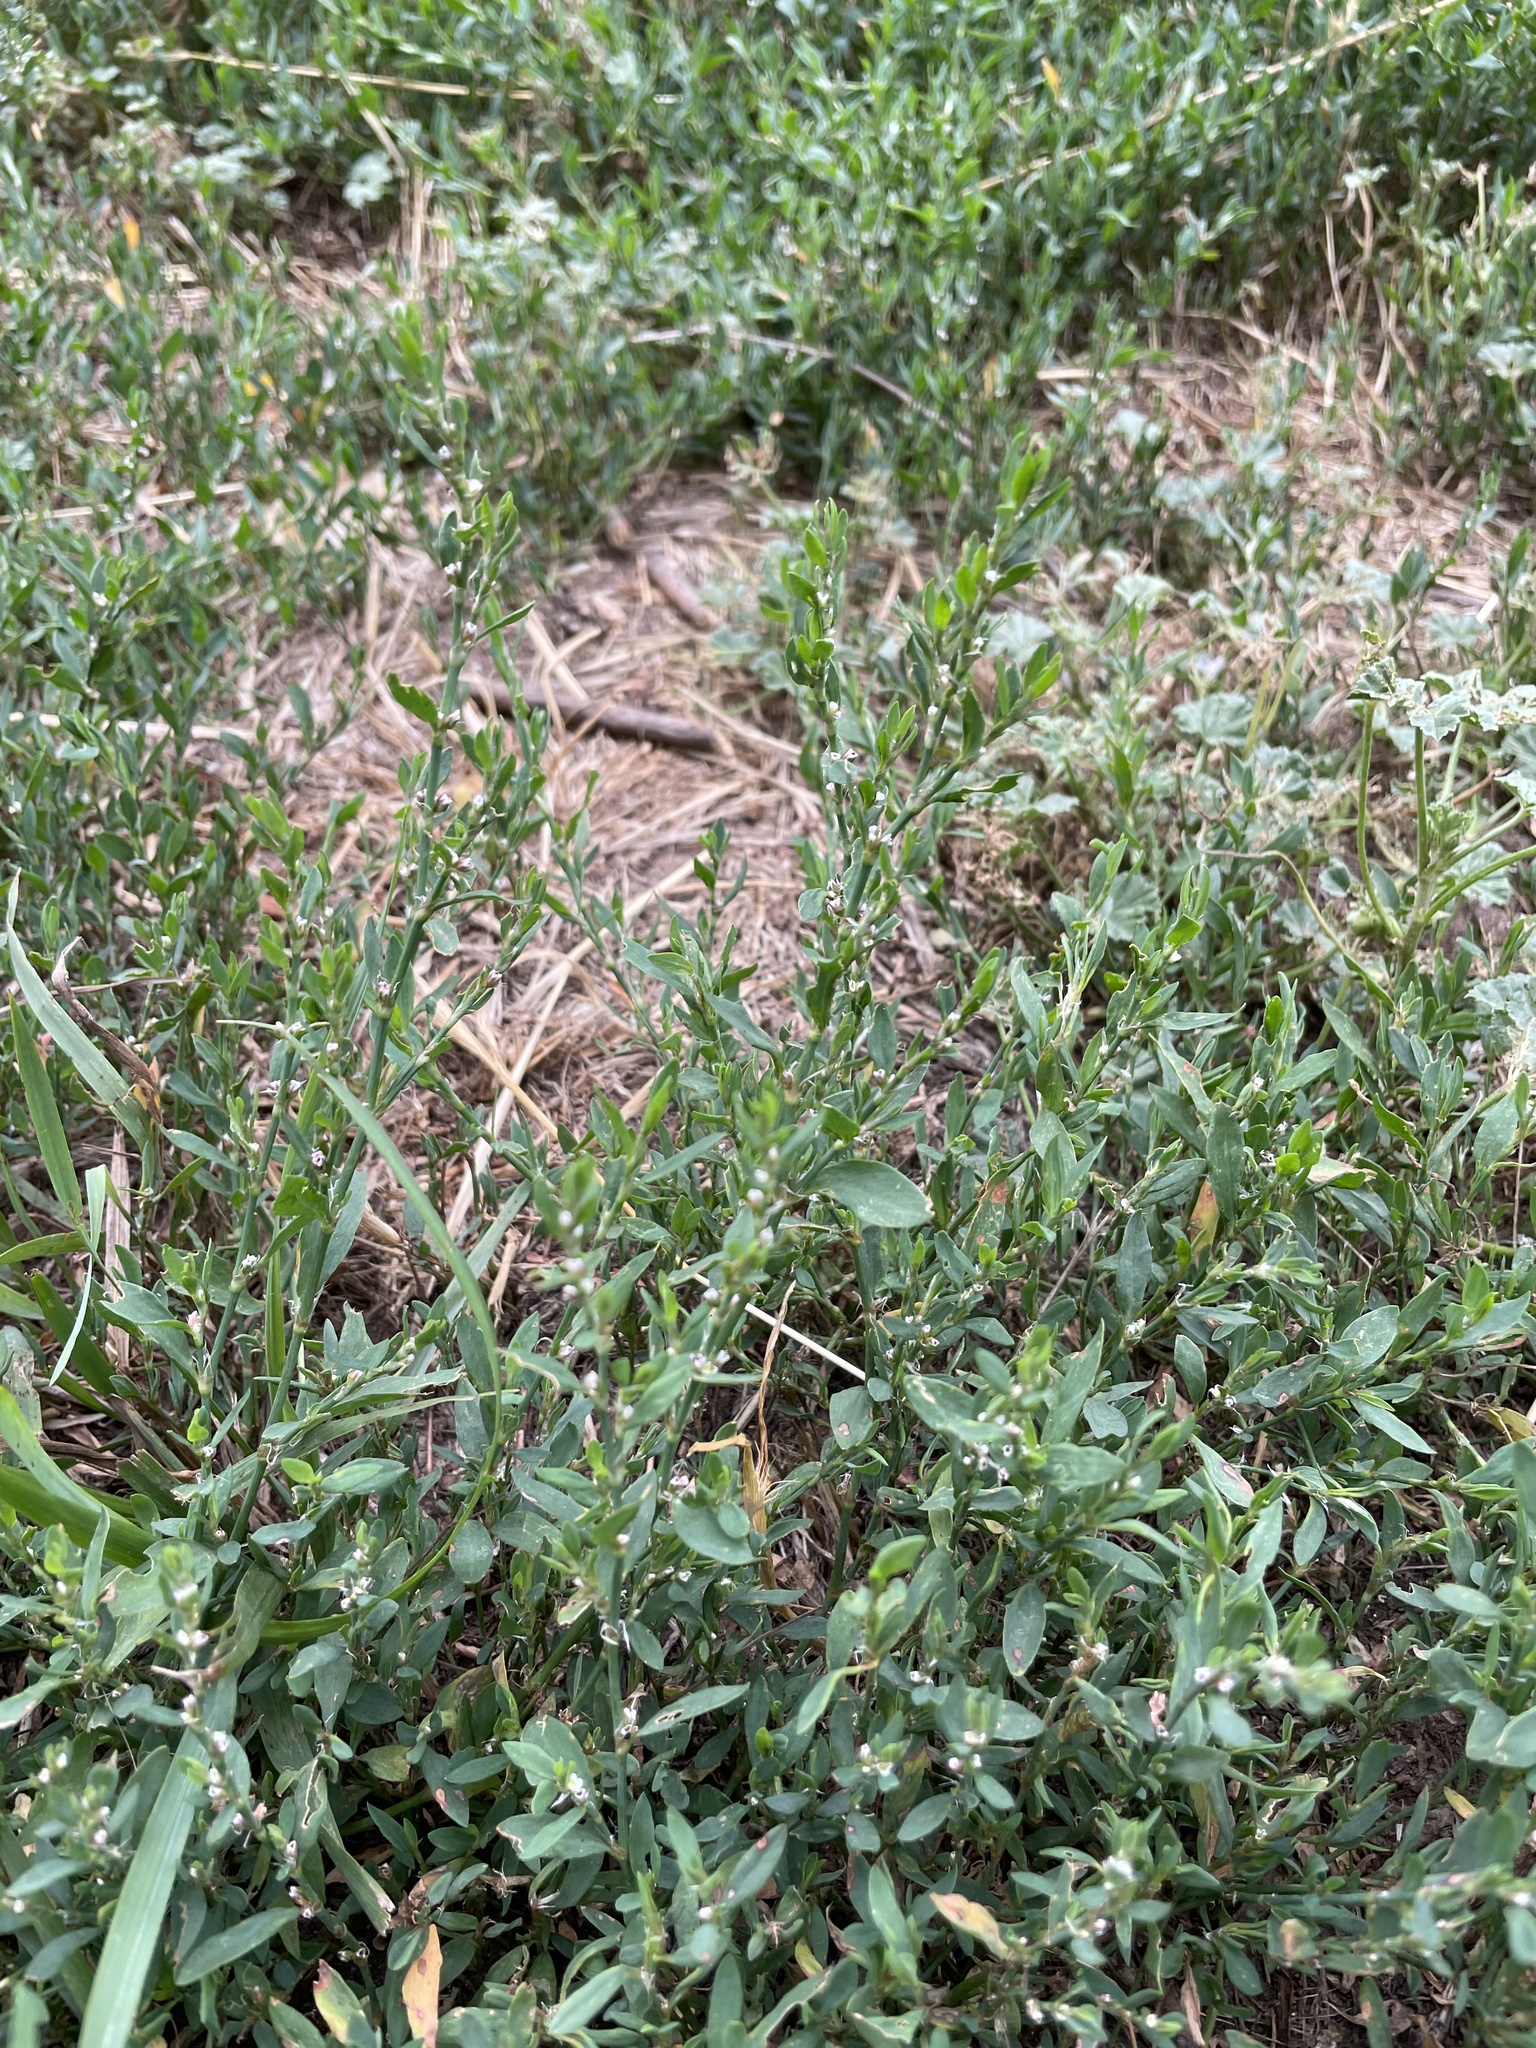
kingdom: Plantae
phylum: Tracheophyta
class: Magnoliopsida
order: Caryophyllales
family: Polygonaceae
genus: Polygonum
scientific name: Polygonum aviculare
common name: Prostrate knotweed
